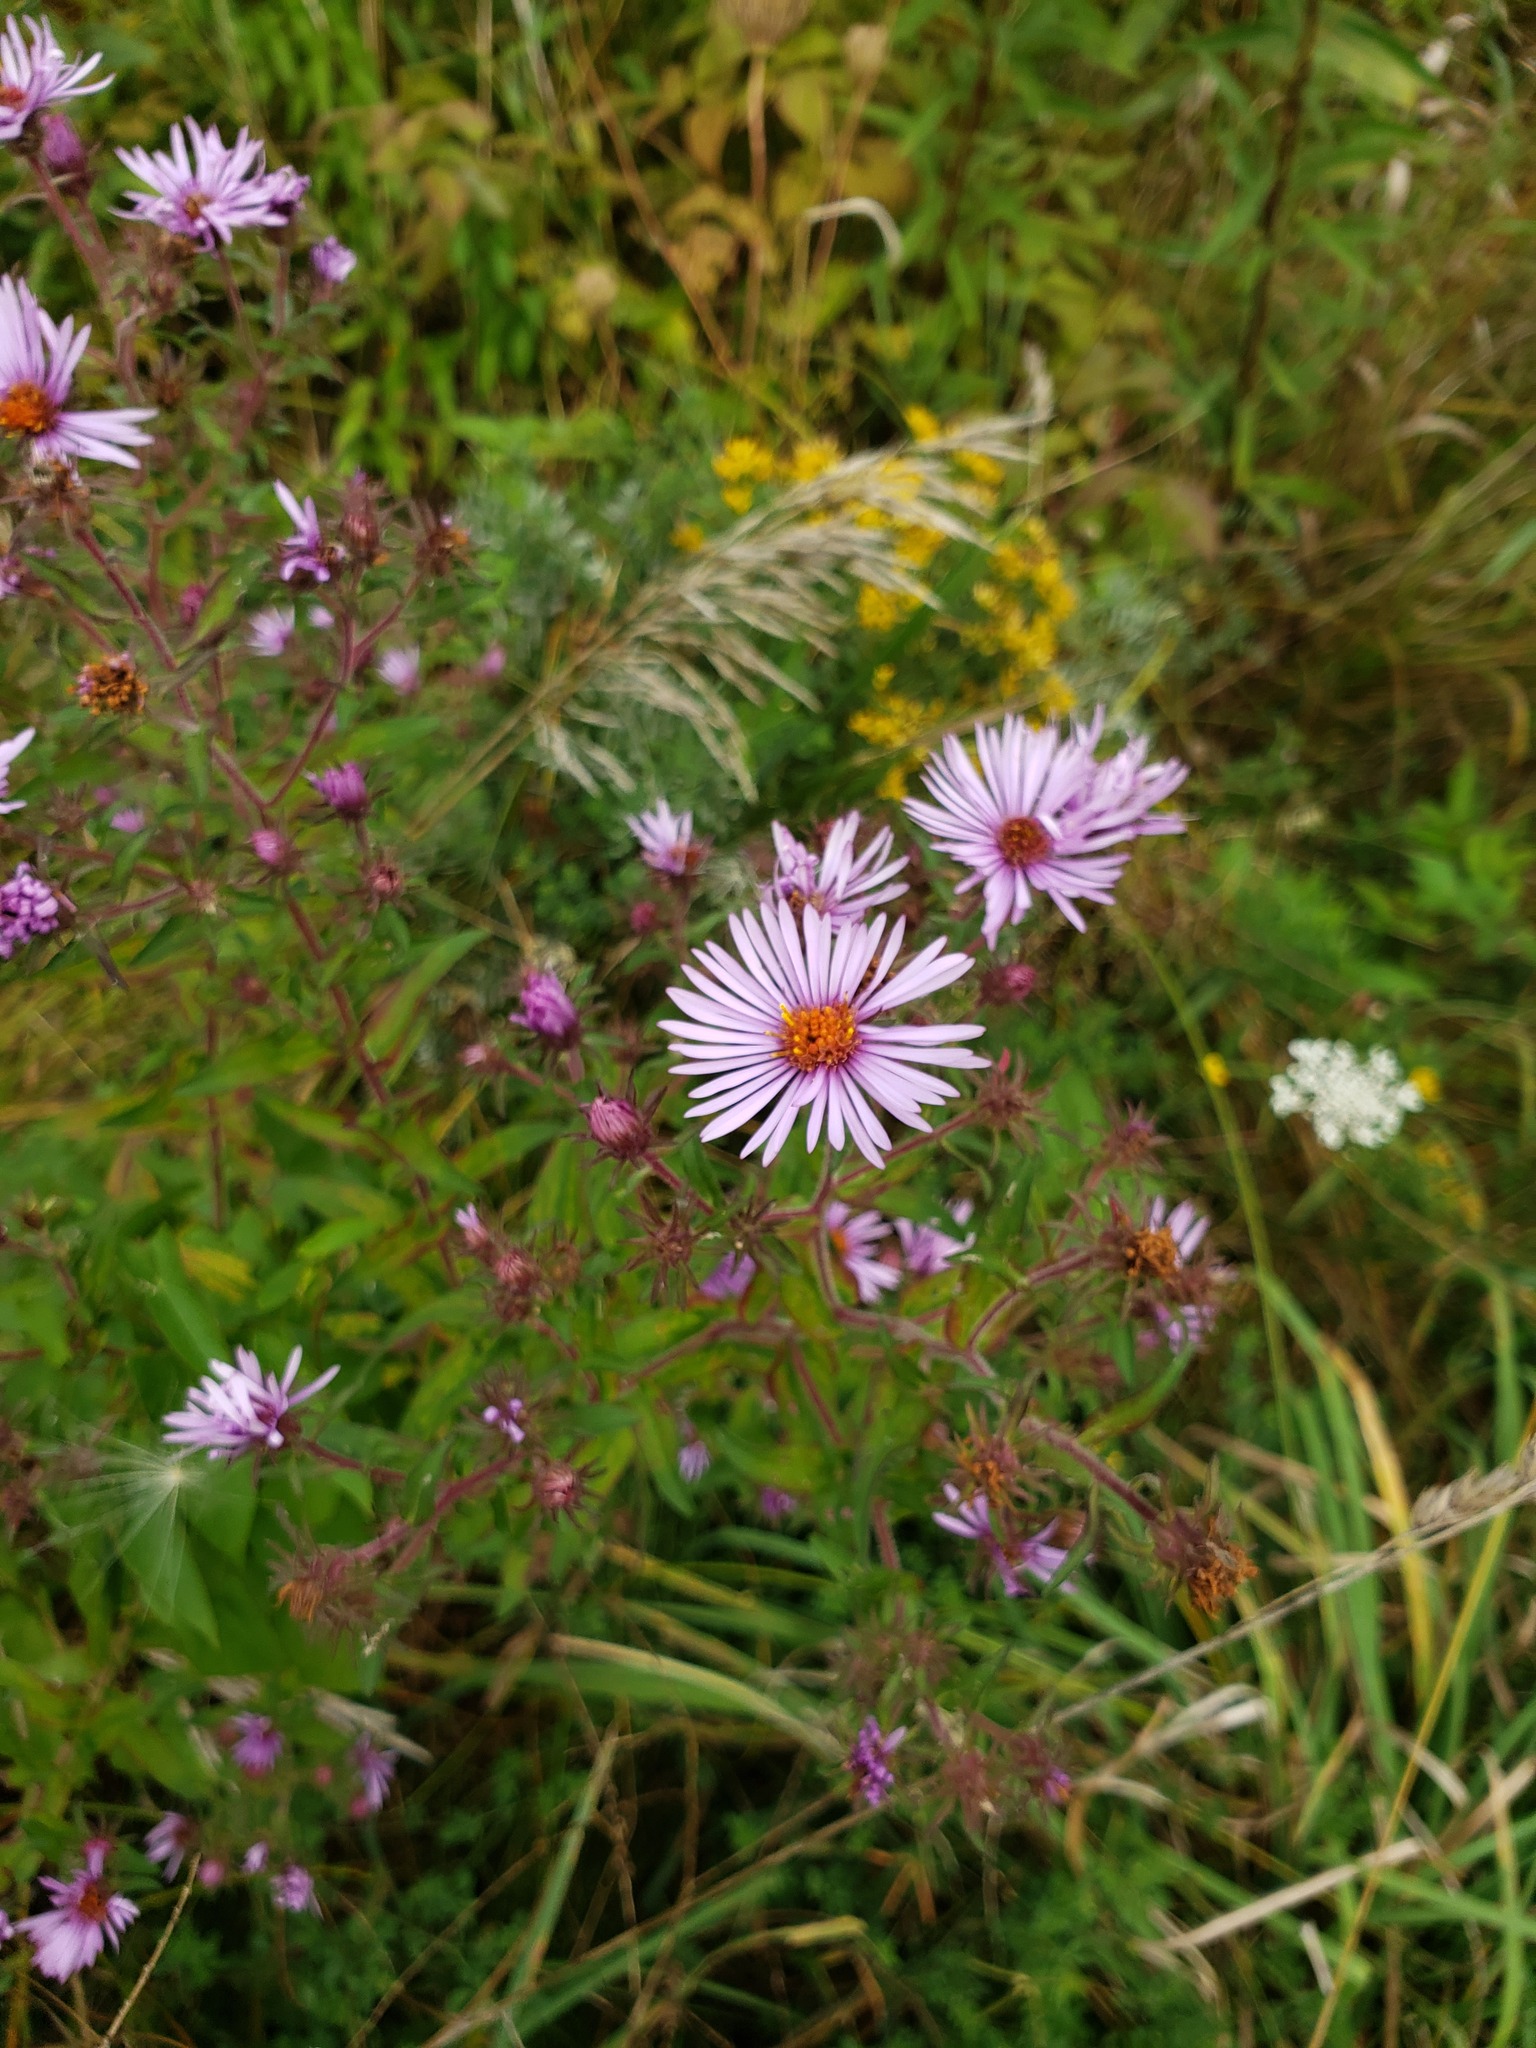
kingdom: Plantae
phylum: Tracheophyta
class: Magnoliopsida
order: Asterales
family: Asteraceae
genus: Symphyotrichum
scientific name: Symphyotrichum novae-angliae
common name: Michaelmas daisy
